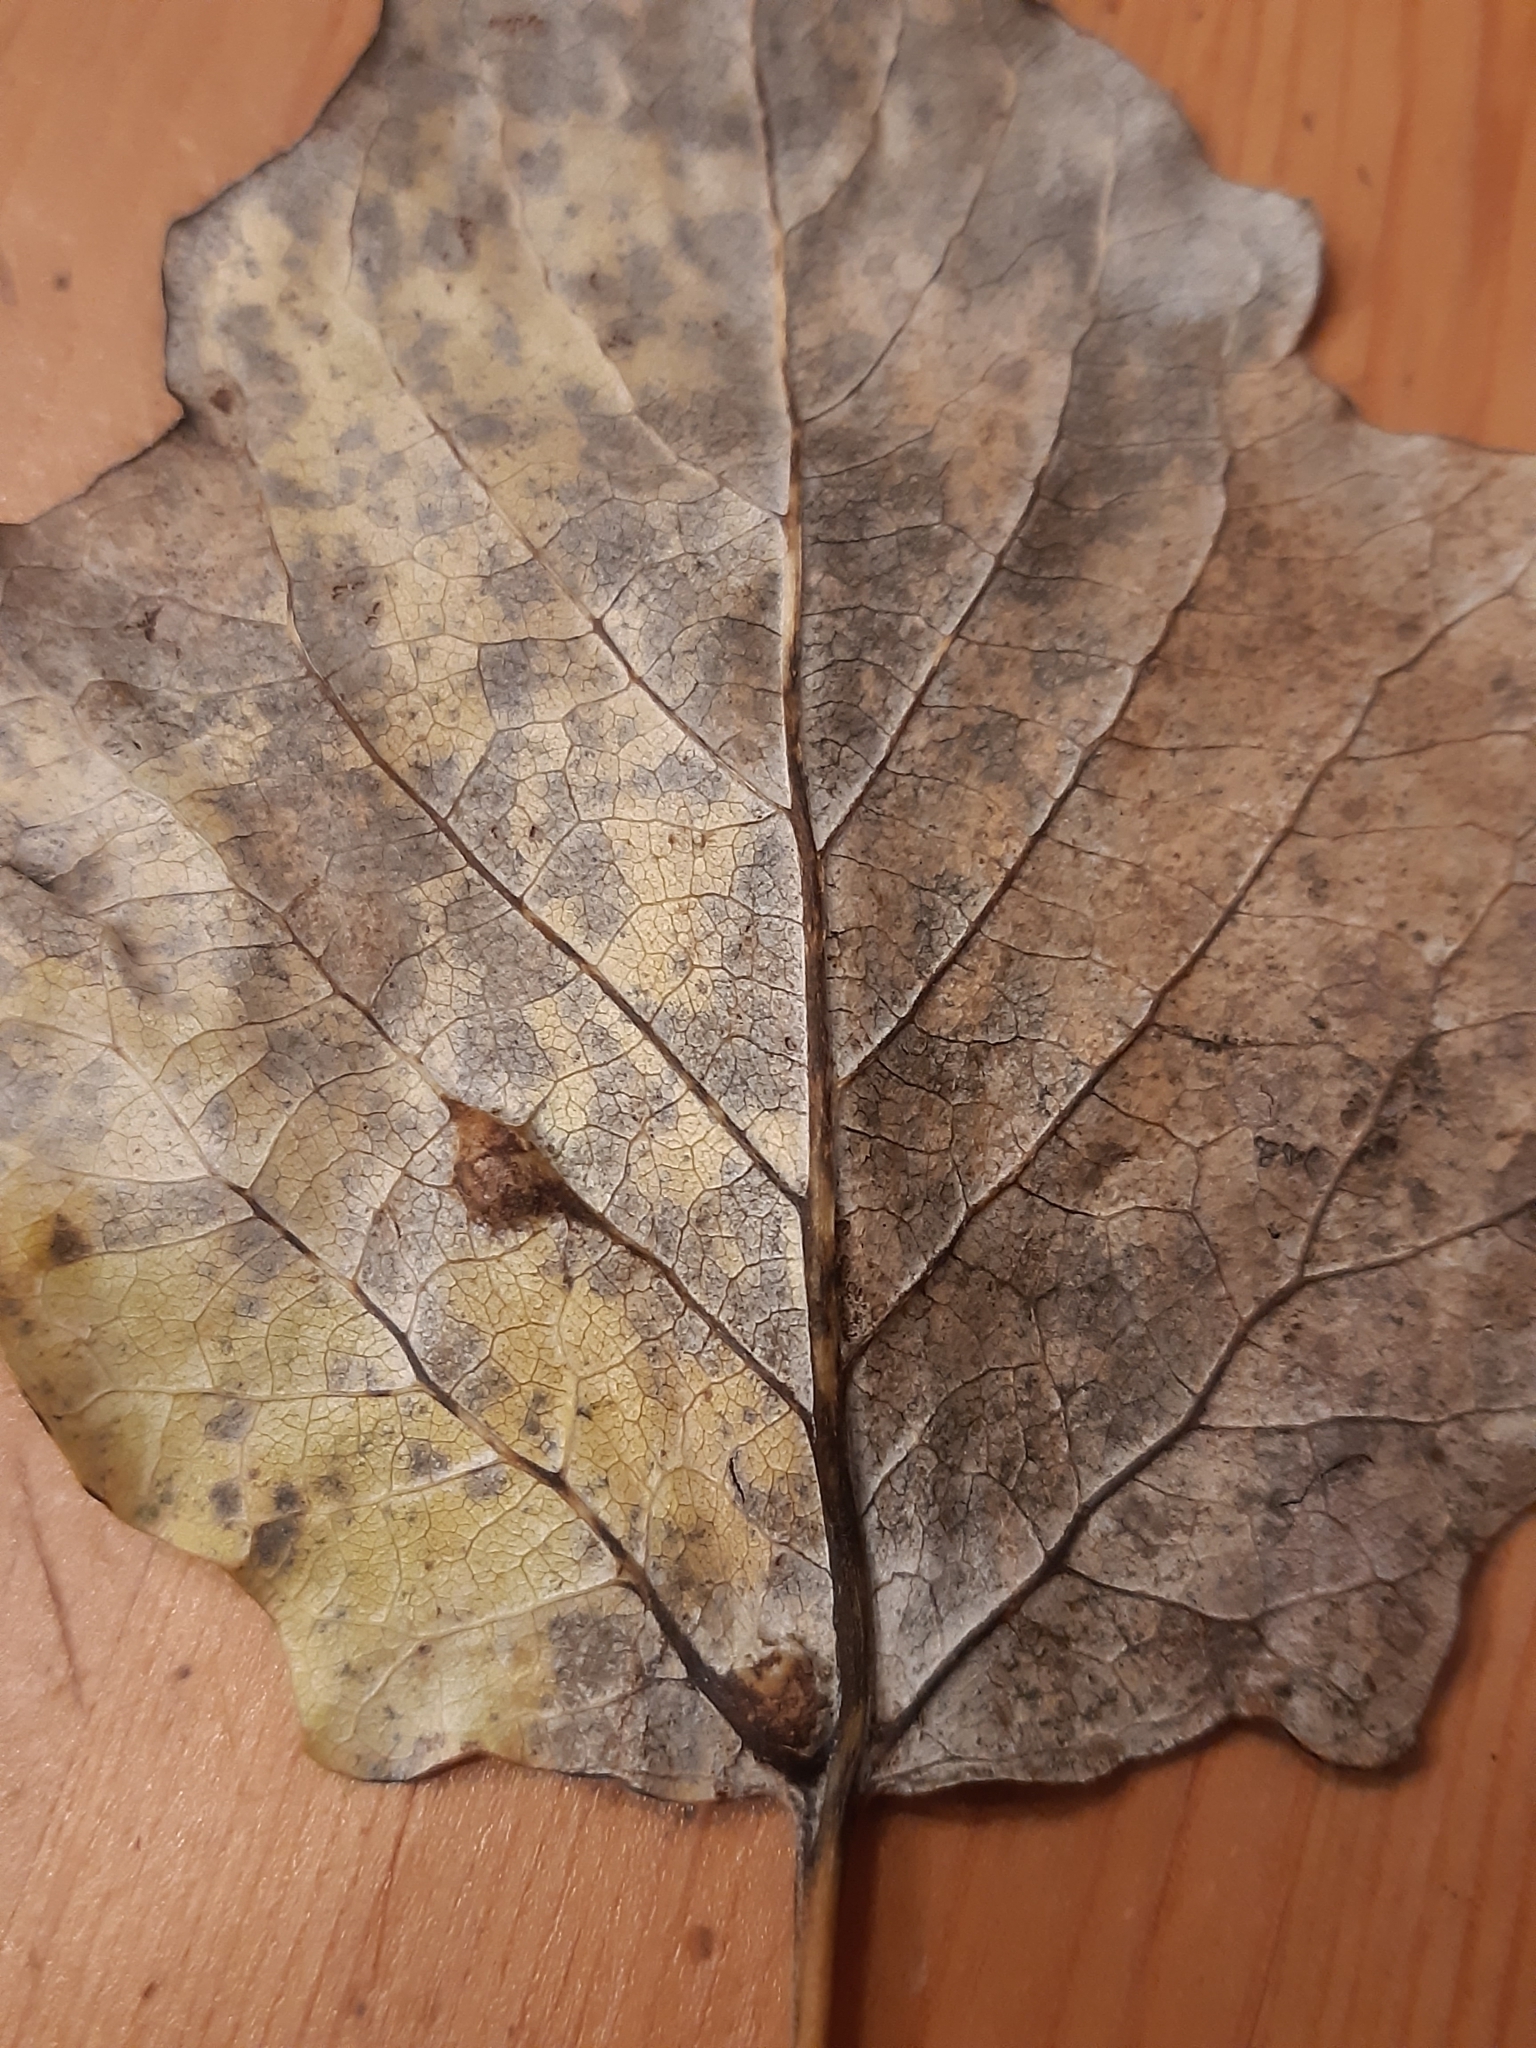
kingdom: Animalia
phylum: Arthropoda
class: Insecta
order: Diptera
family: Cecidomyiidae
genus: Harmandiola
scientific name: Harmandiola cavernosa
